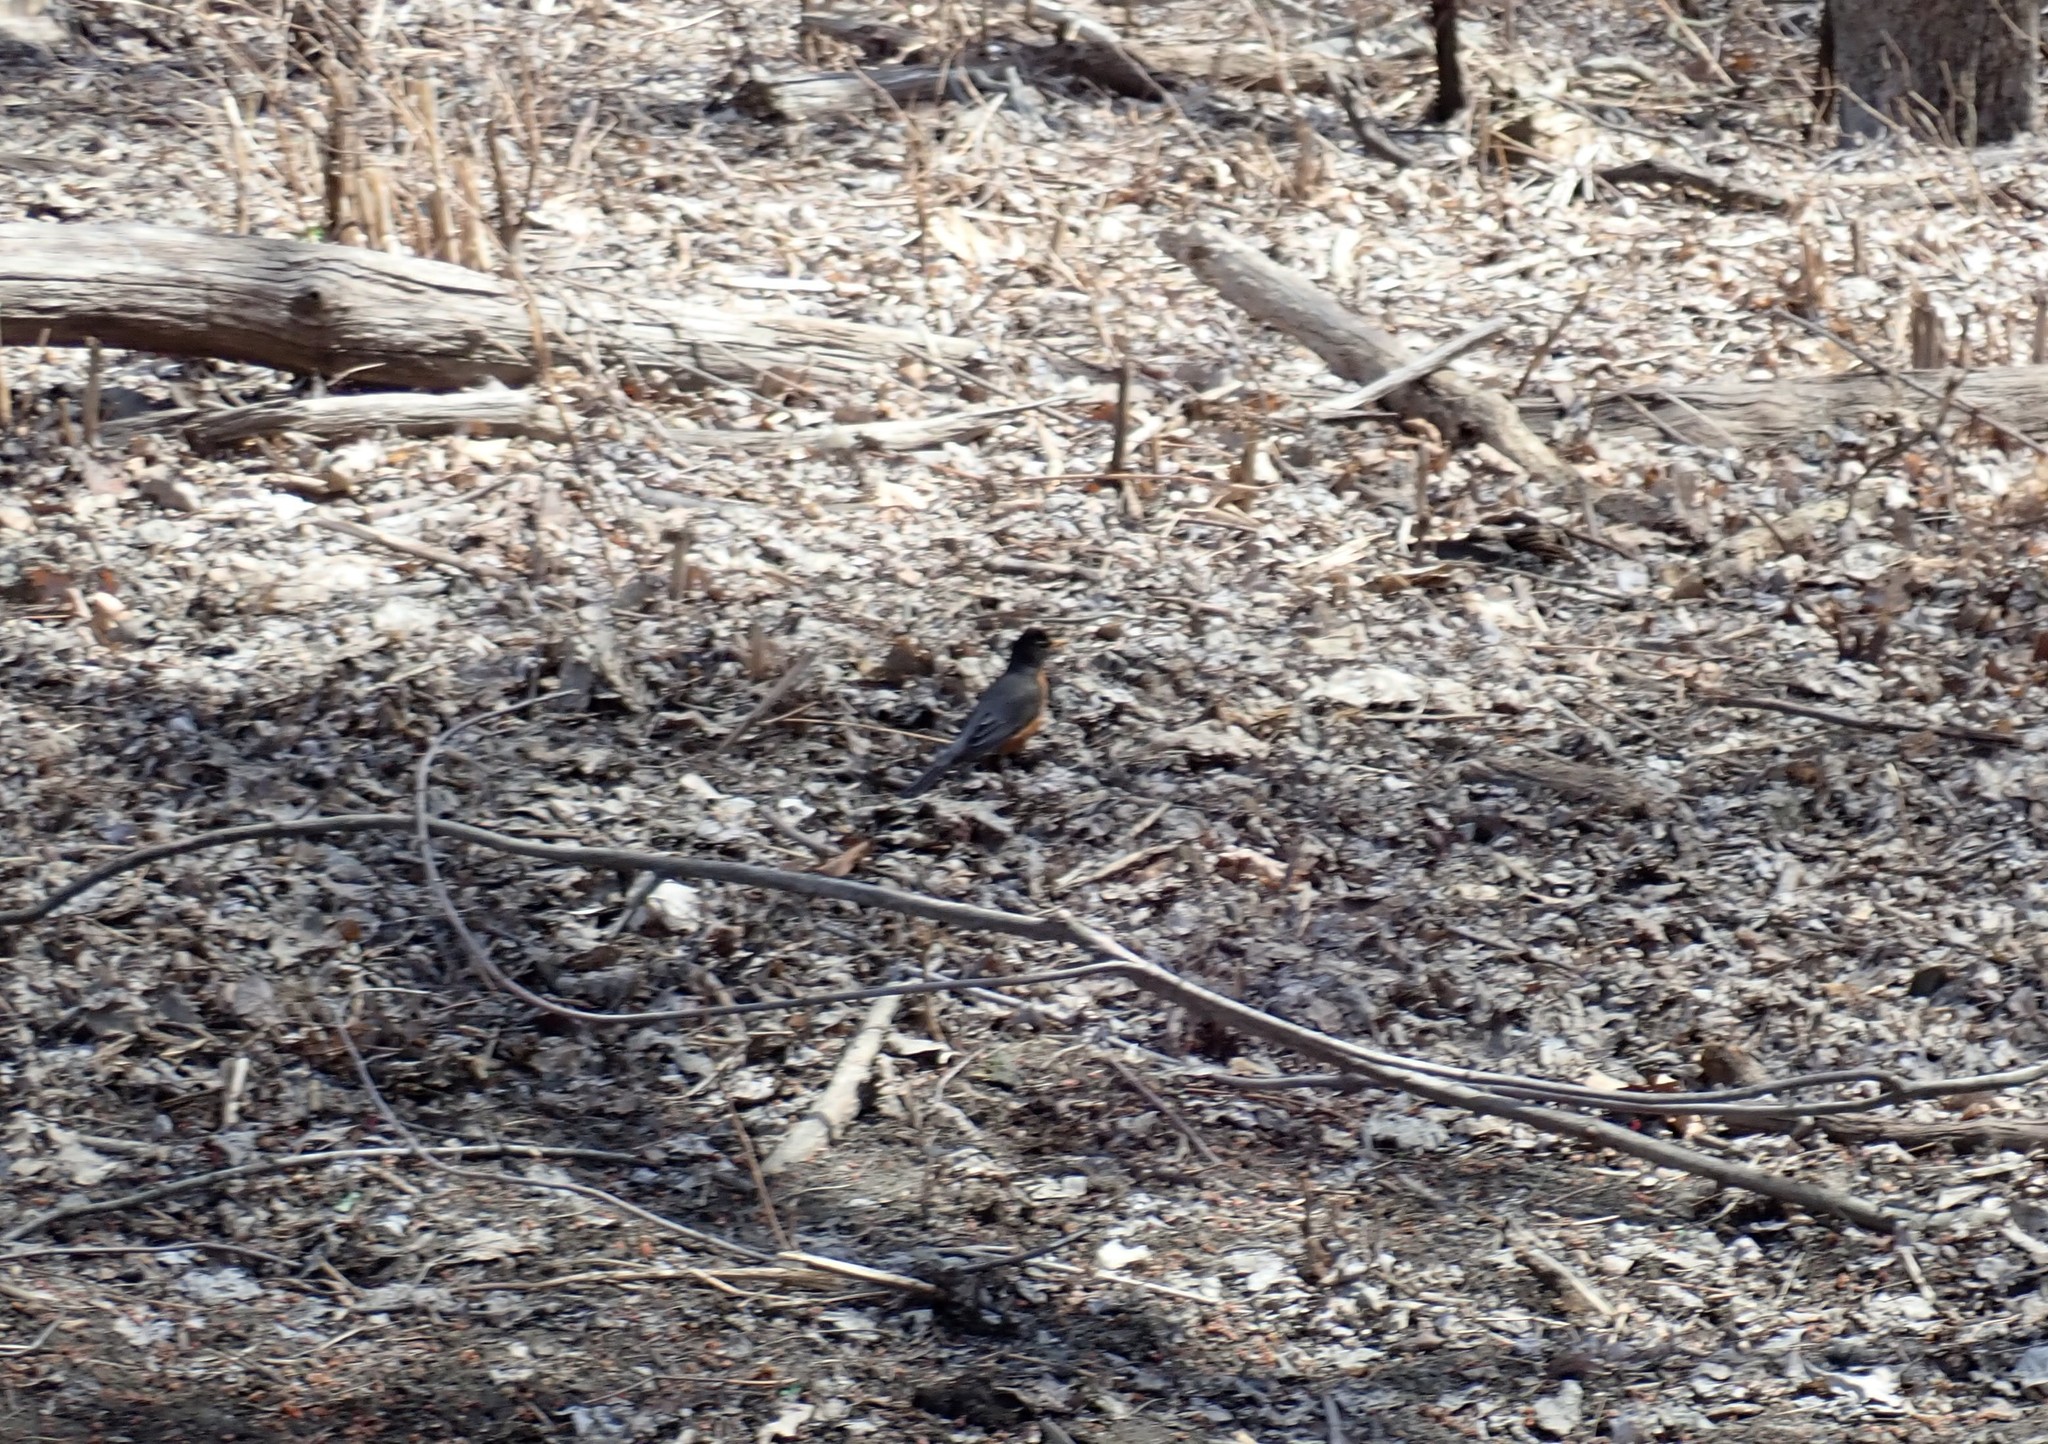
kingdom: Animalia
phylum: Chordata
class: Aves
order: Passeriformes
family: Turdidae
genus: Turdus
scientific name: Turdus migratorius
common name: American robin
